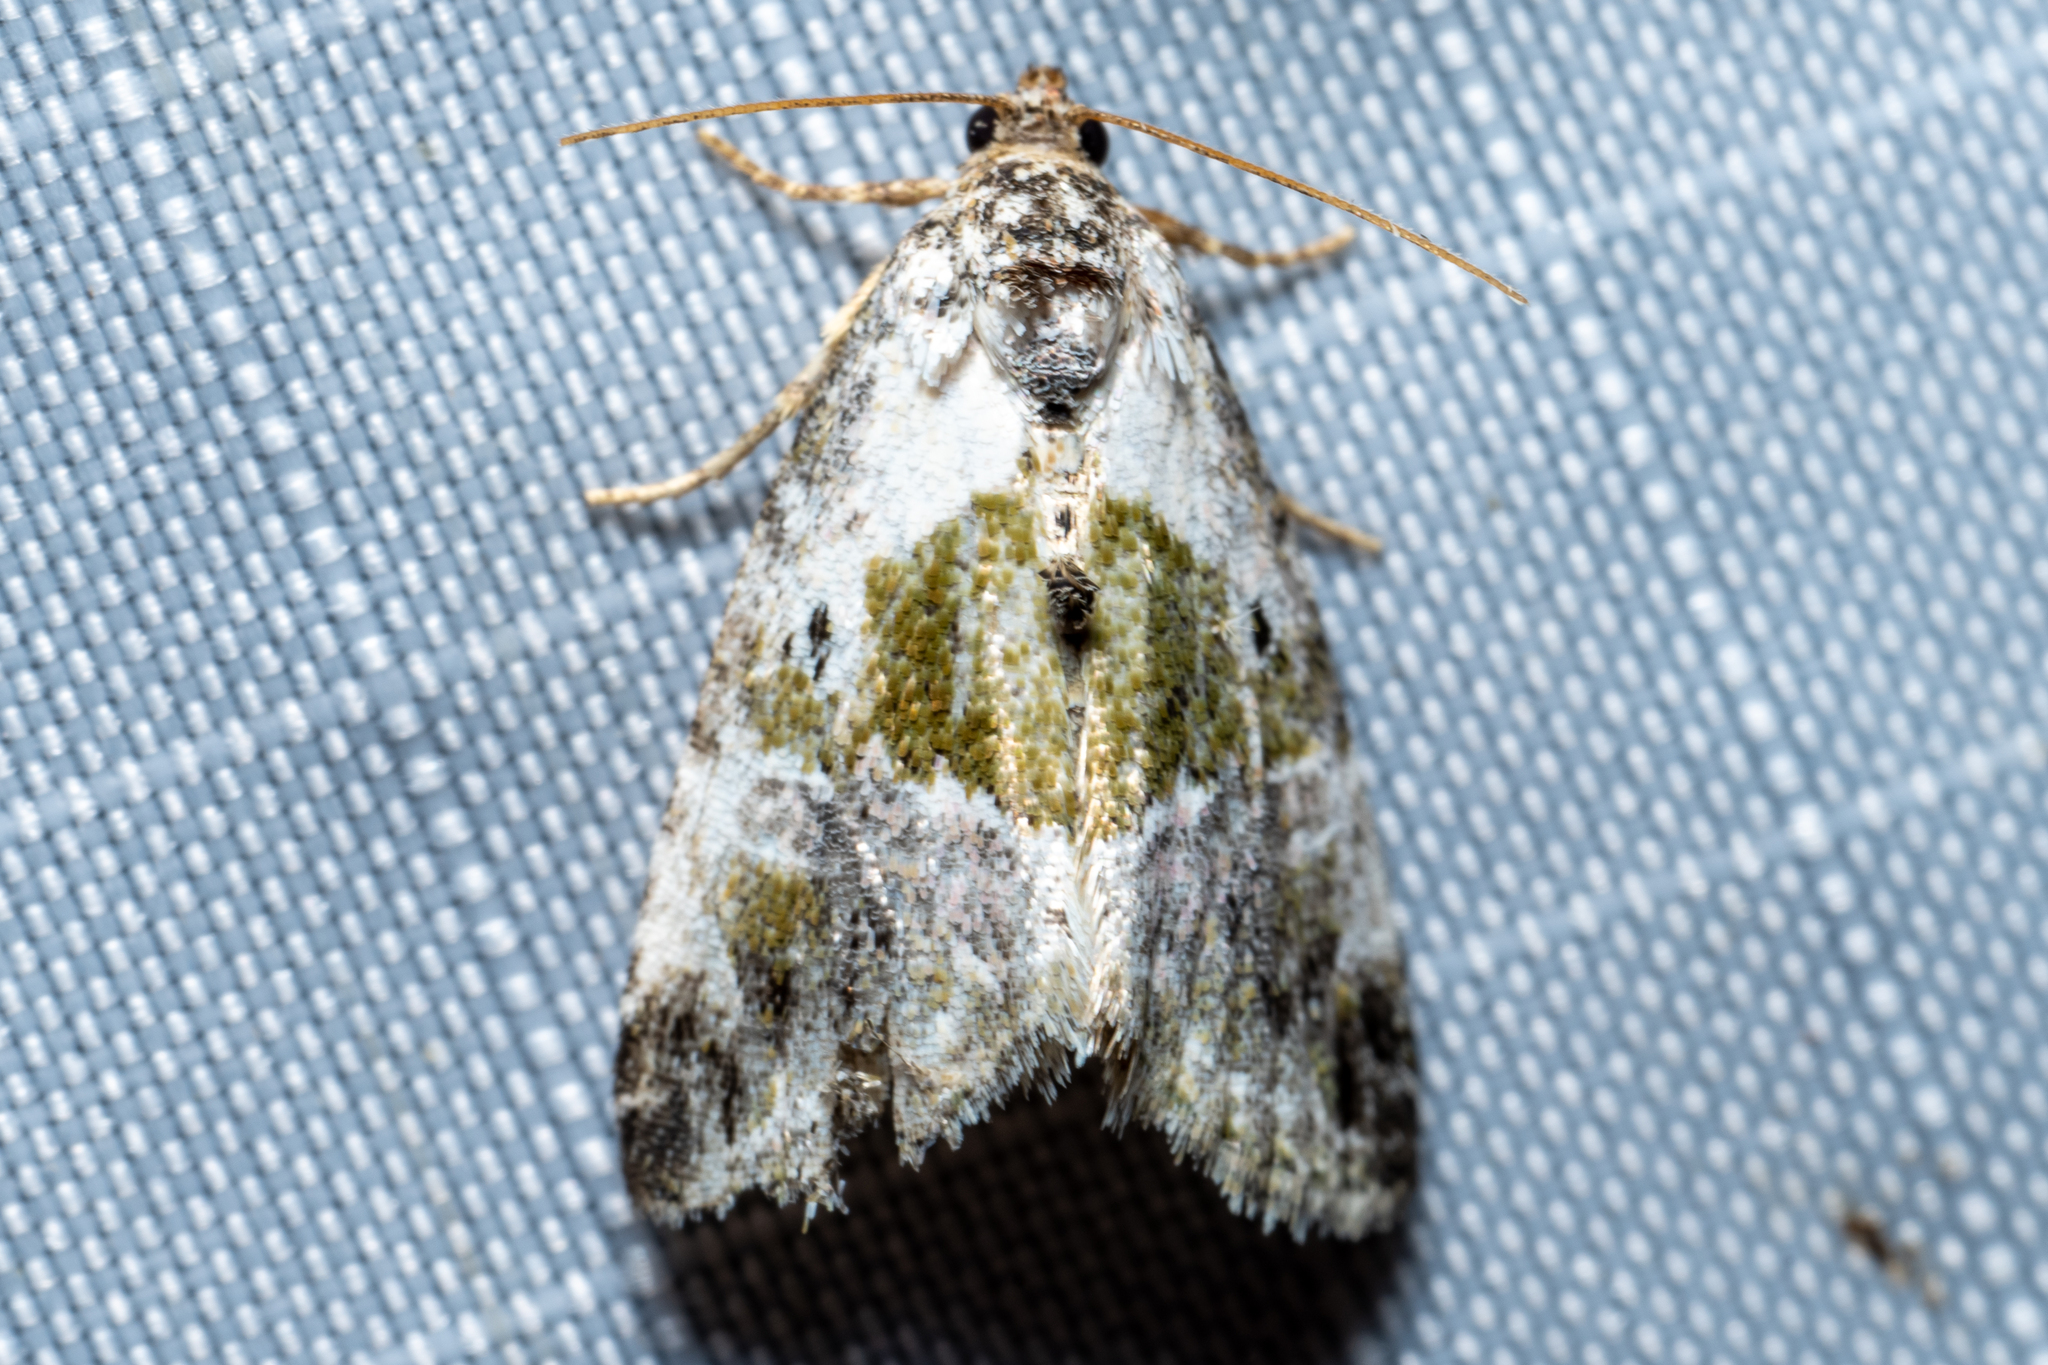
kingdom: Animalia
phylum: Arthropoda
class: Insecta
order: Lepidoptera
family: Noctuidae
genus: Maliattha
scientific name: Maliattha synochitis
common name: Black-dotted glyph
